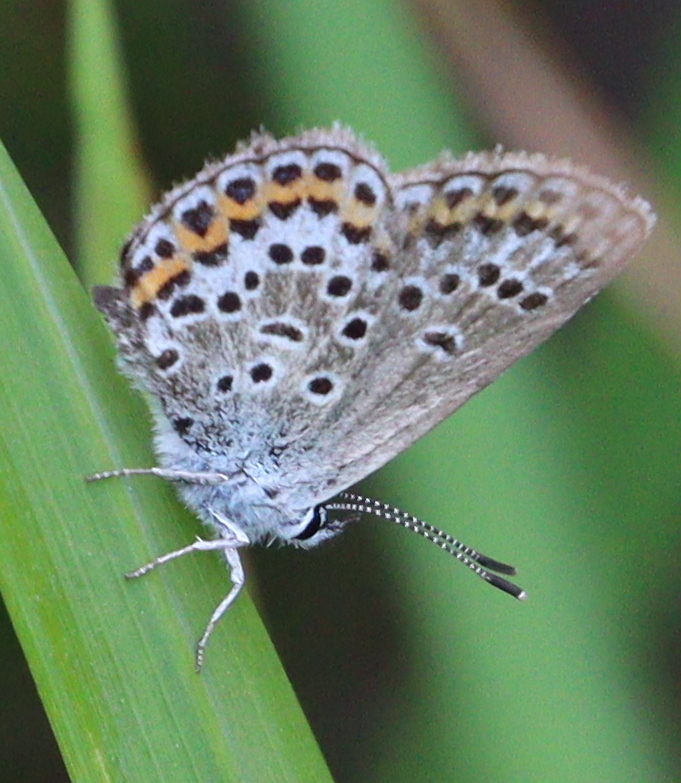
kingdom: Animalia
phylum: Arthropoda
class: Insecta
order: Lepidoptera
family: Lycaenidae
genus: Plebejus
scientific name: Plebejus argus
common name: Silver-studded blue
